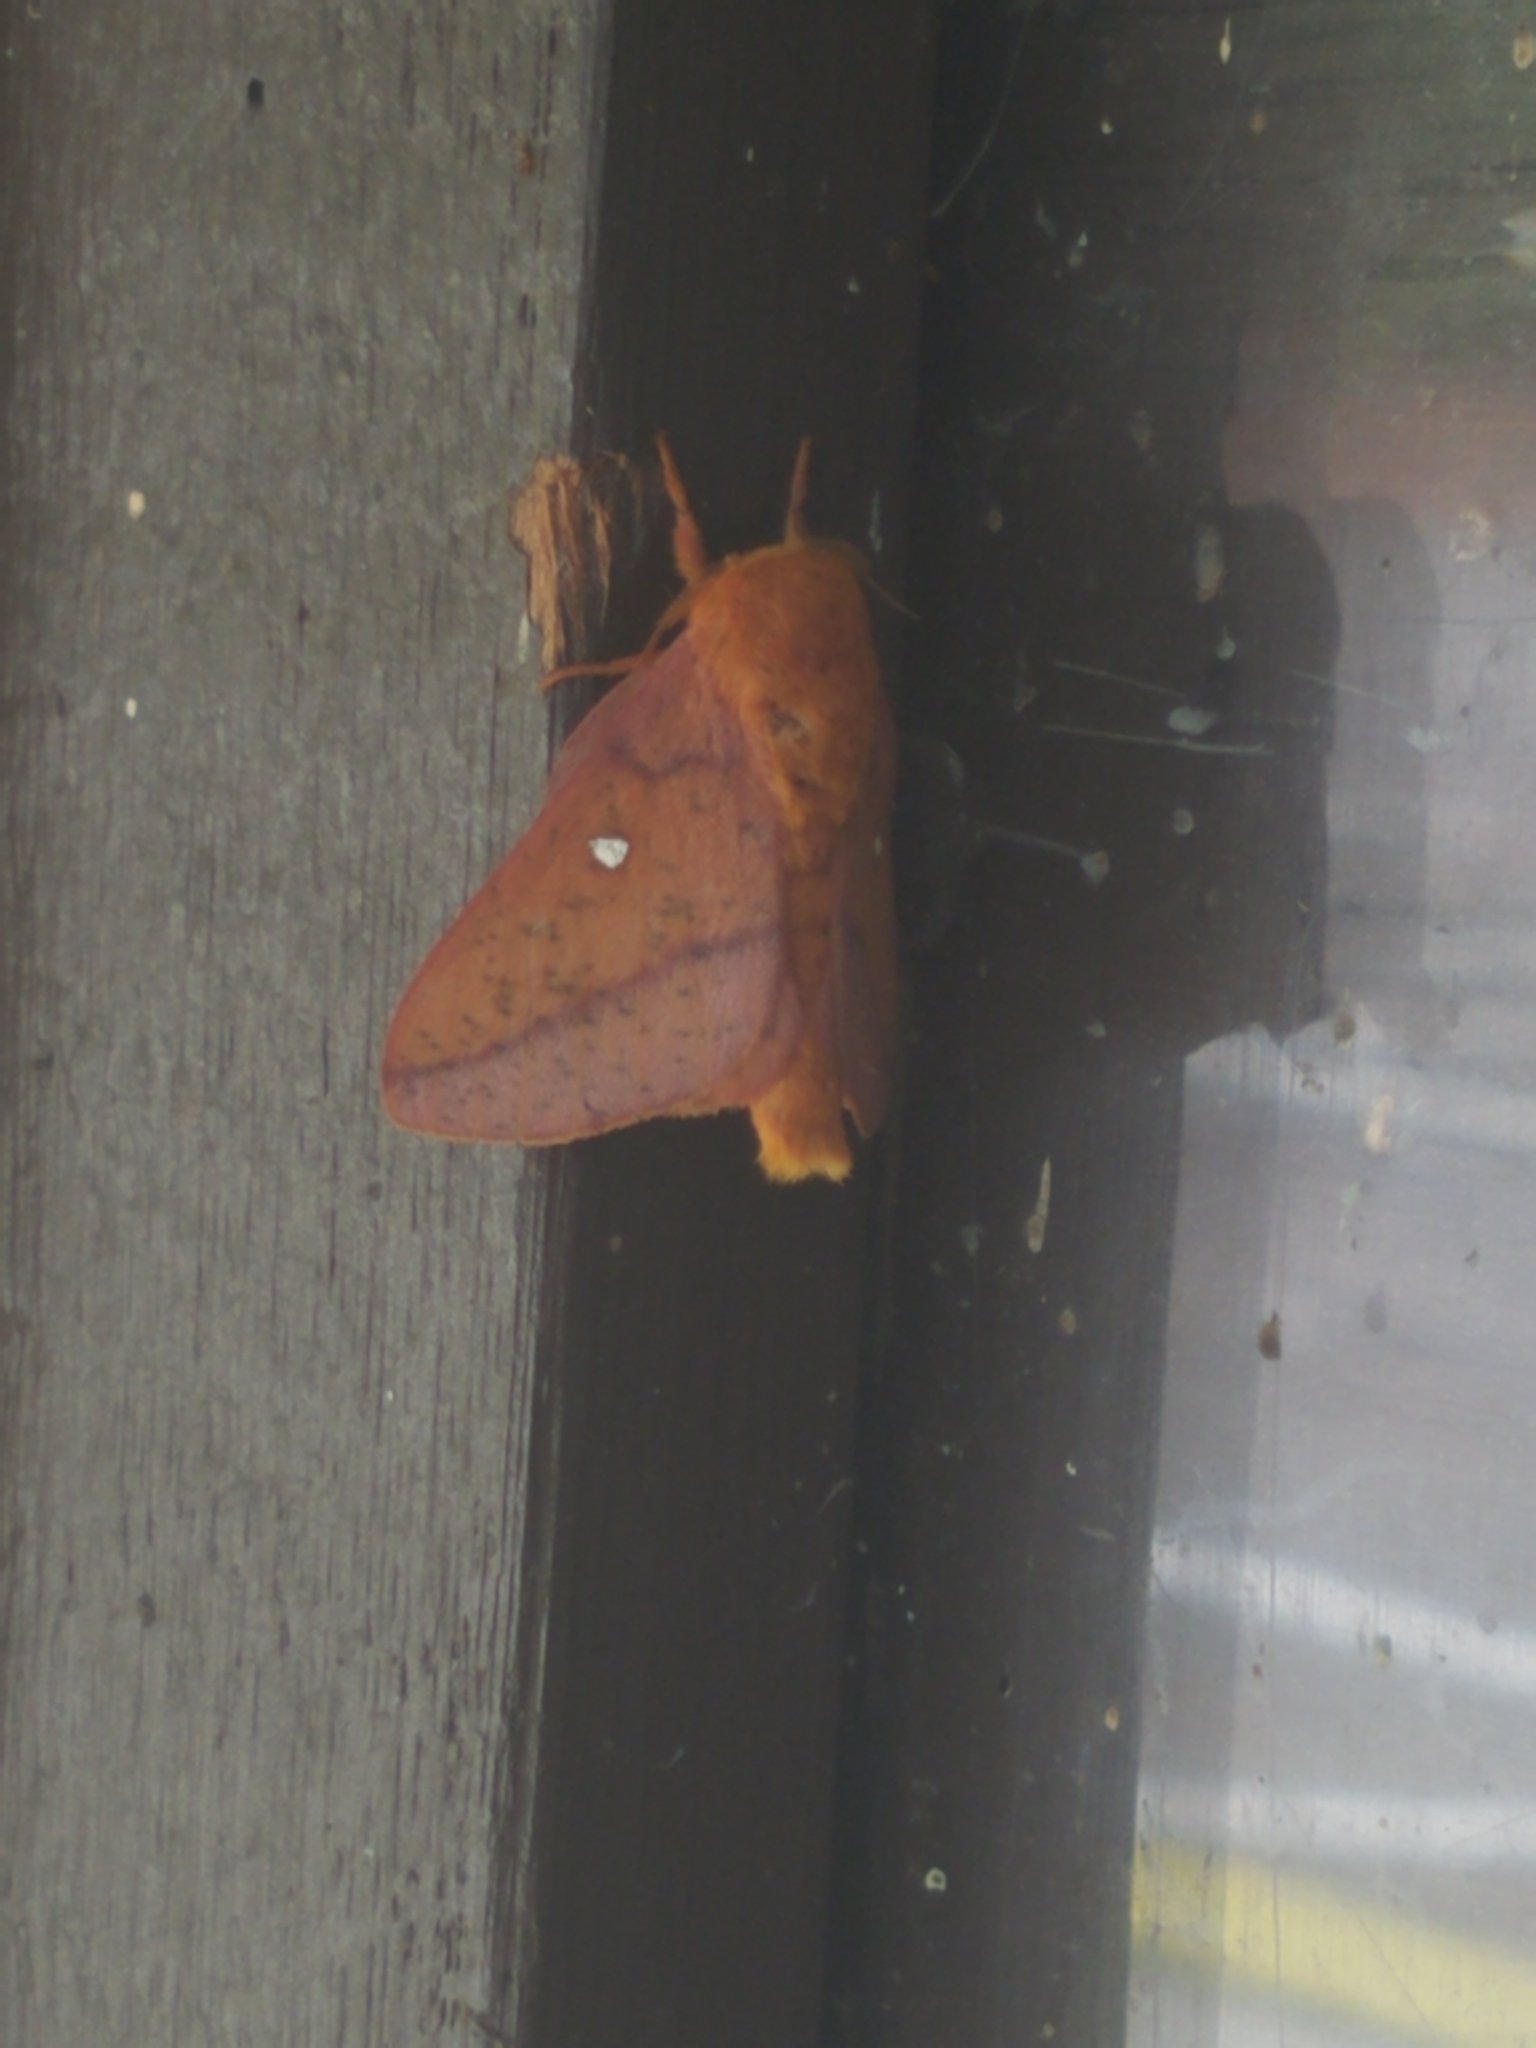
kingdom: Animalia
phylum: Arthropoda
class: Insecta
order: Lepidoptera
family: Saturniidae
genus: Anisota
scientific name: Anisota stigma
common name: Spiny oakworm moth
